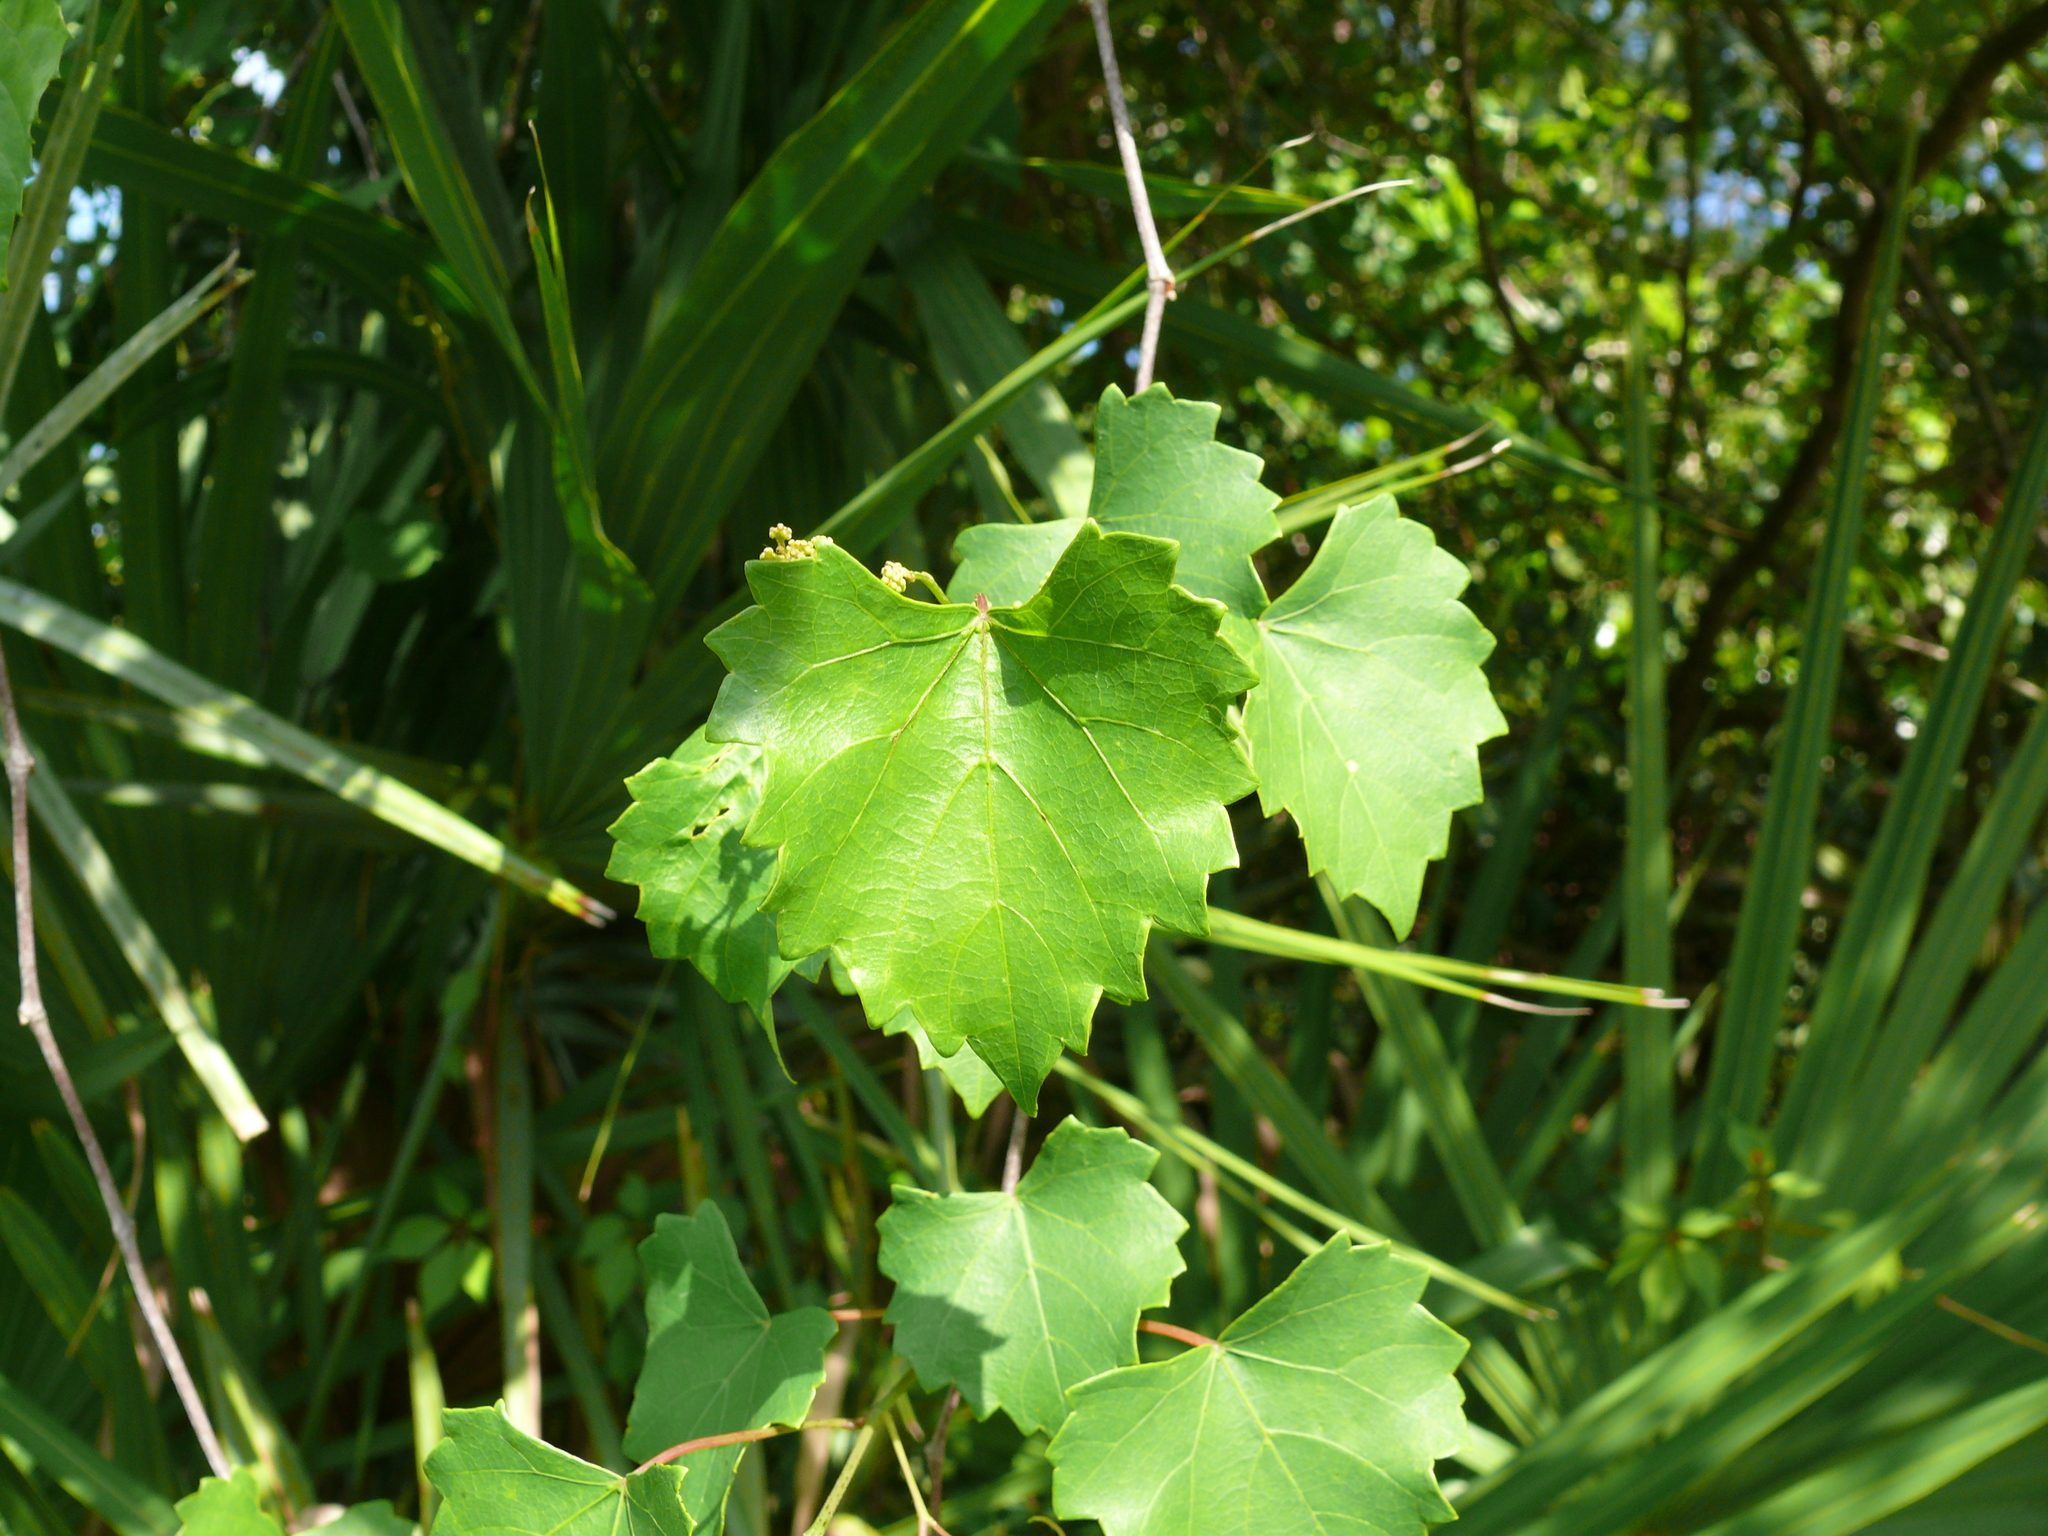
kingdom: Plantae
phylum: Tracheophyta
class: Magnoliopsida
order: Vitales
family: Vitaceae
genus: Vitis
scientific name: Vitis rotundifolia
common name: Muscadine grape
